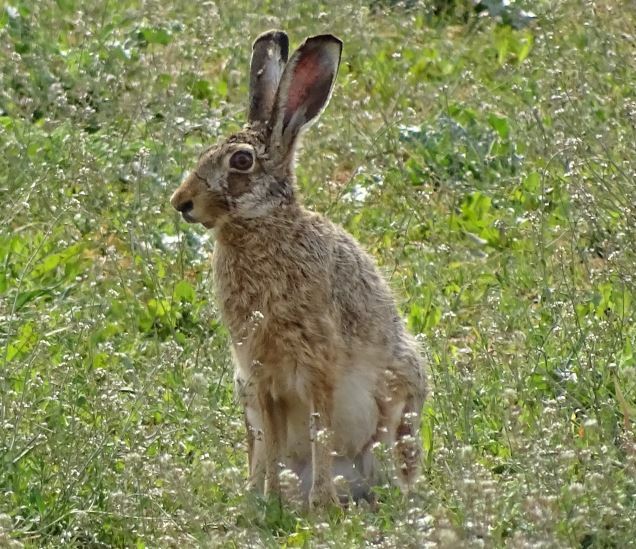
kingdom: Animalia
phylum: Chordata
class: Mammalia
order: Lagomorpha
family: Leporidae
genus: Lepus
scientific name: Lepus europaeus
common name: European hare
